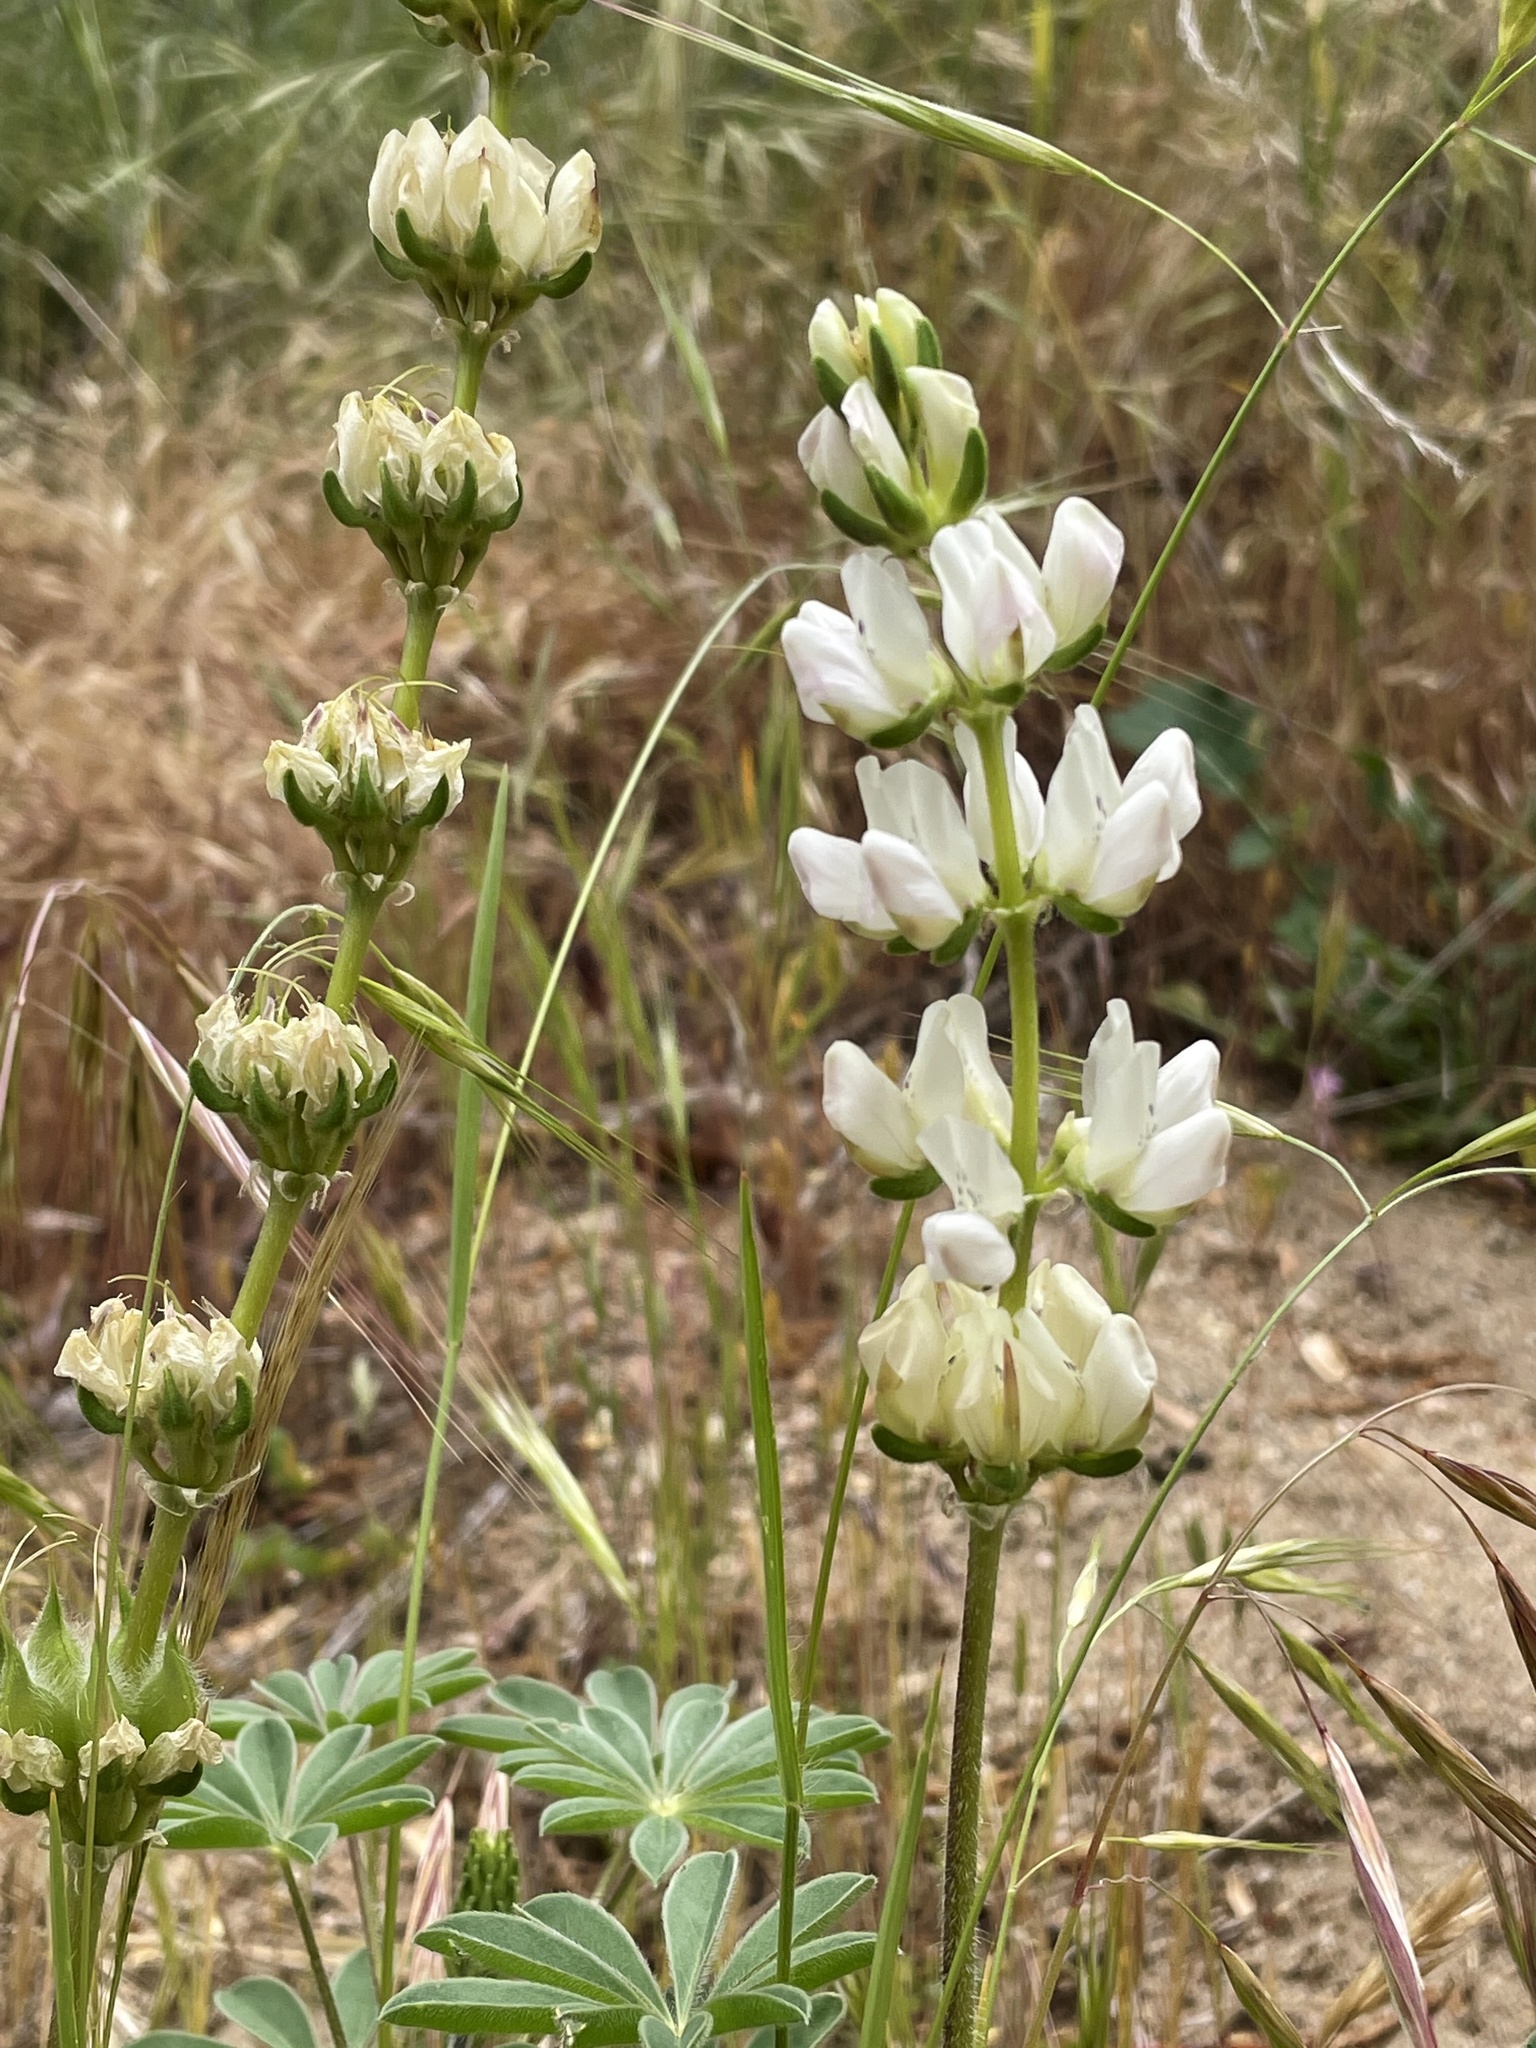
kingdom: Plantae
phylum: Tracheophyta
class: Magnoliopsida
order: Fabales
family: Fabaceae
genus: Lupinus
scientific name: Lupinus microcarpus
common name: Chick lupine
